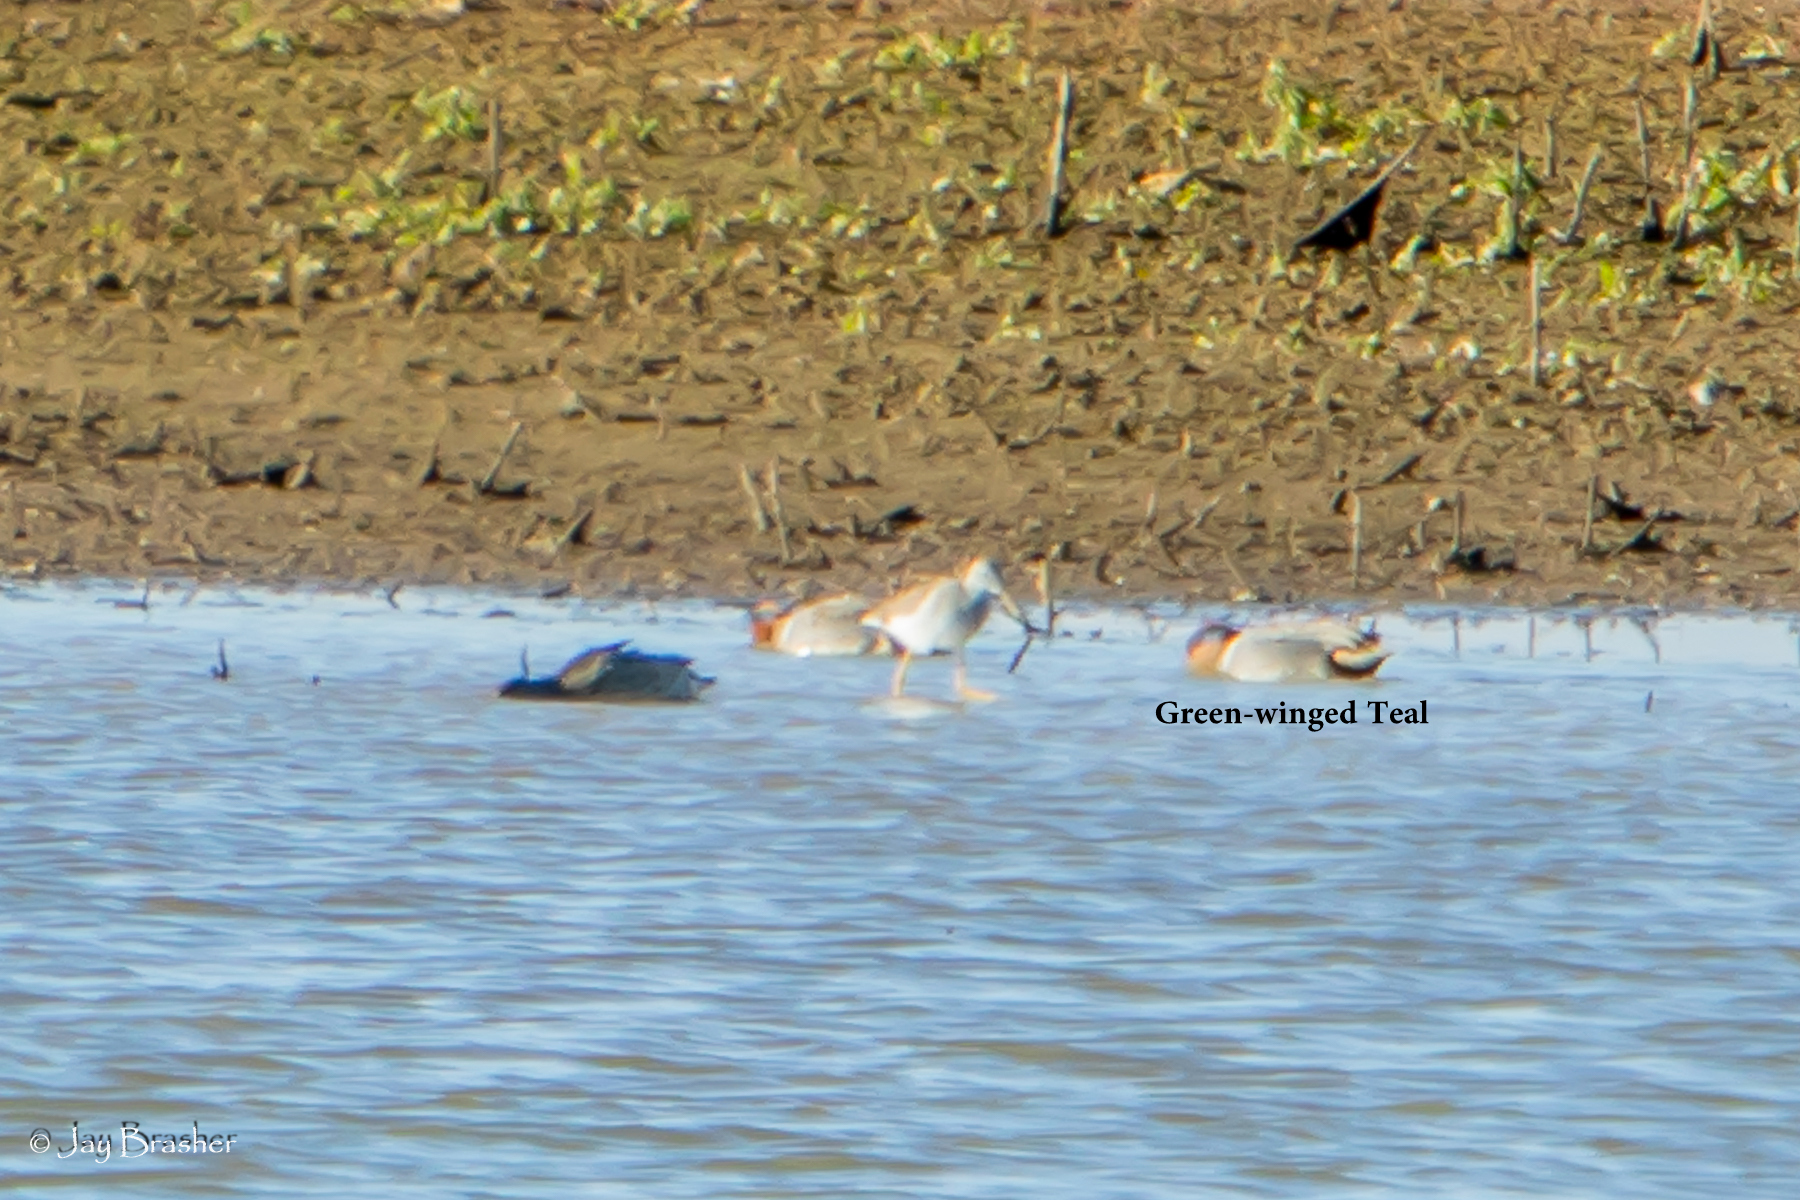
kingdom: Animalia
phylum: Chordata
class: Aves
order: Anseriformes
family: Anatidae
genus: Anas
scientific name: Anas crecca
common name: Eurasian teal
